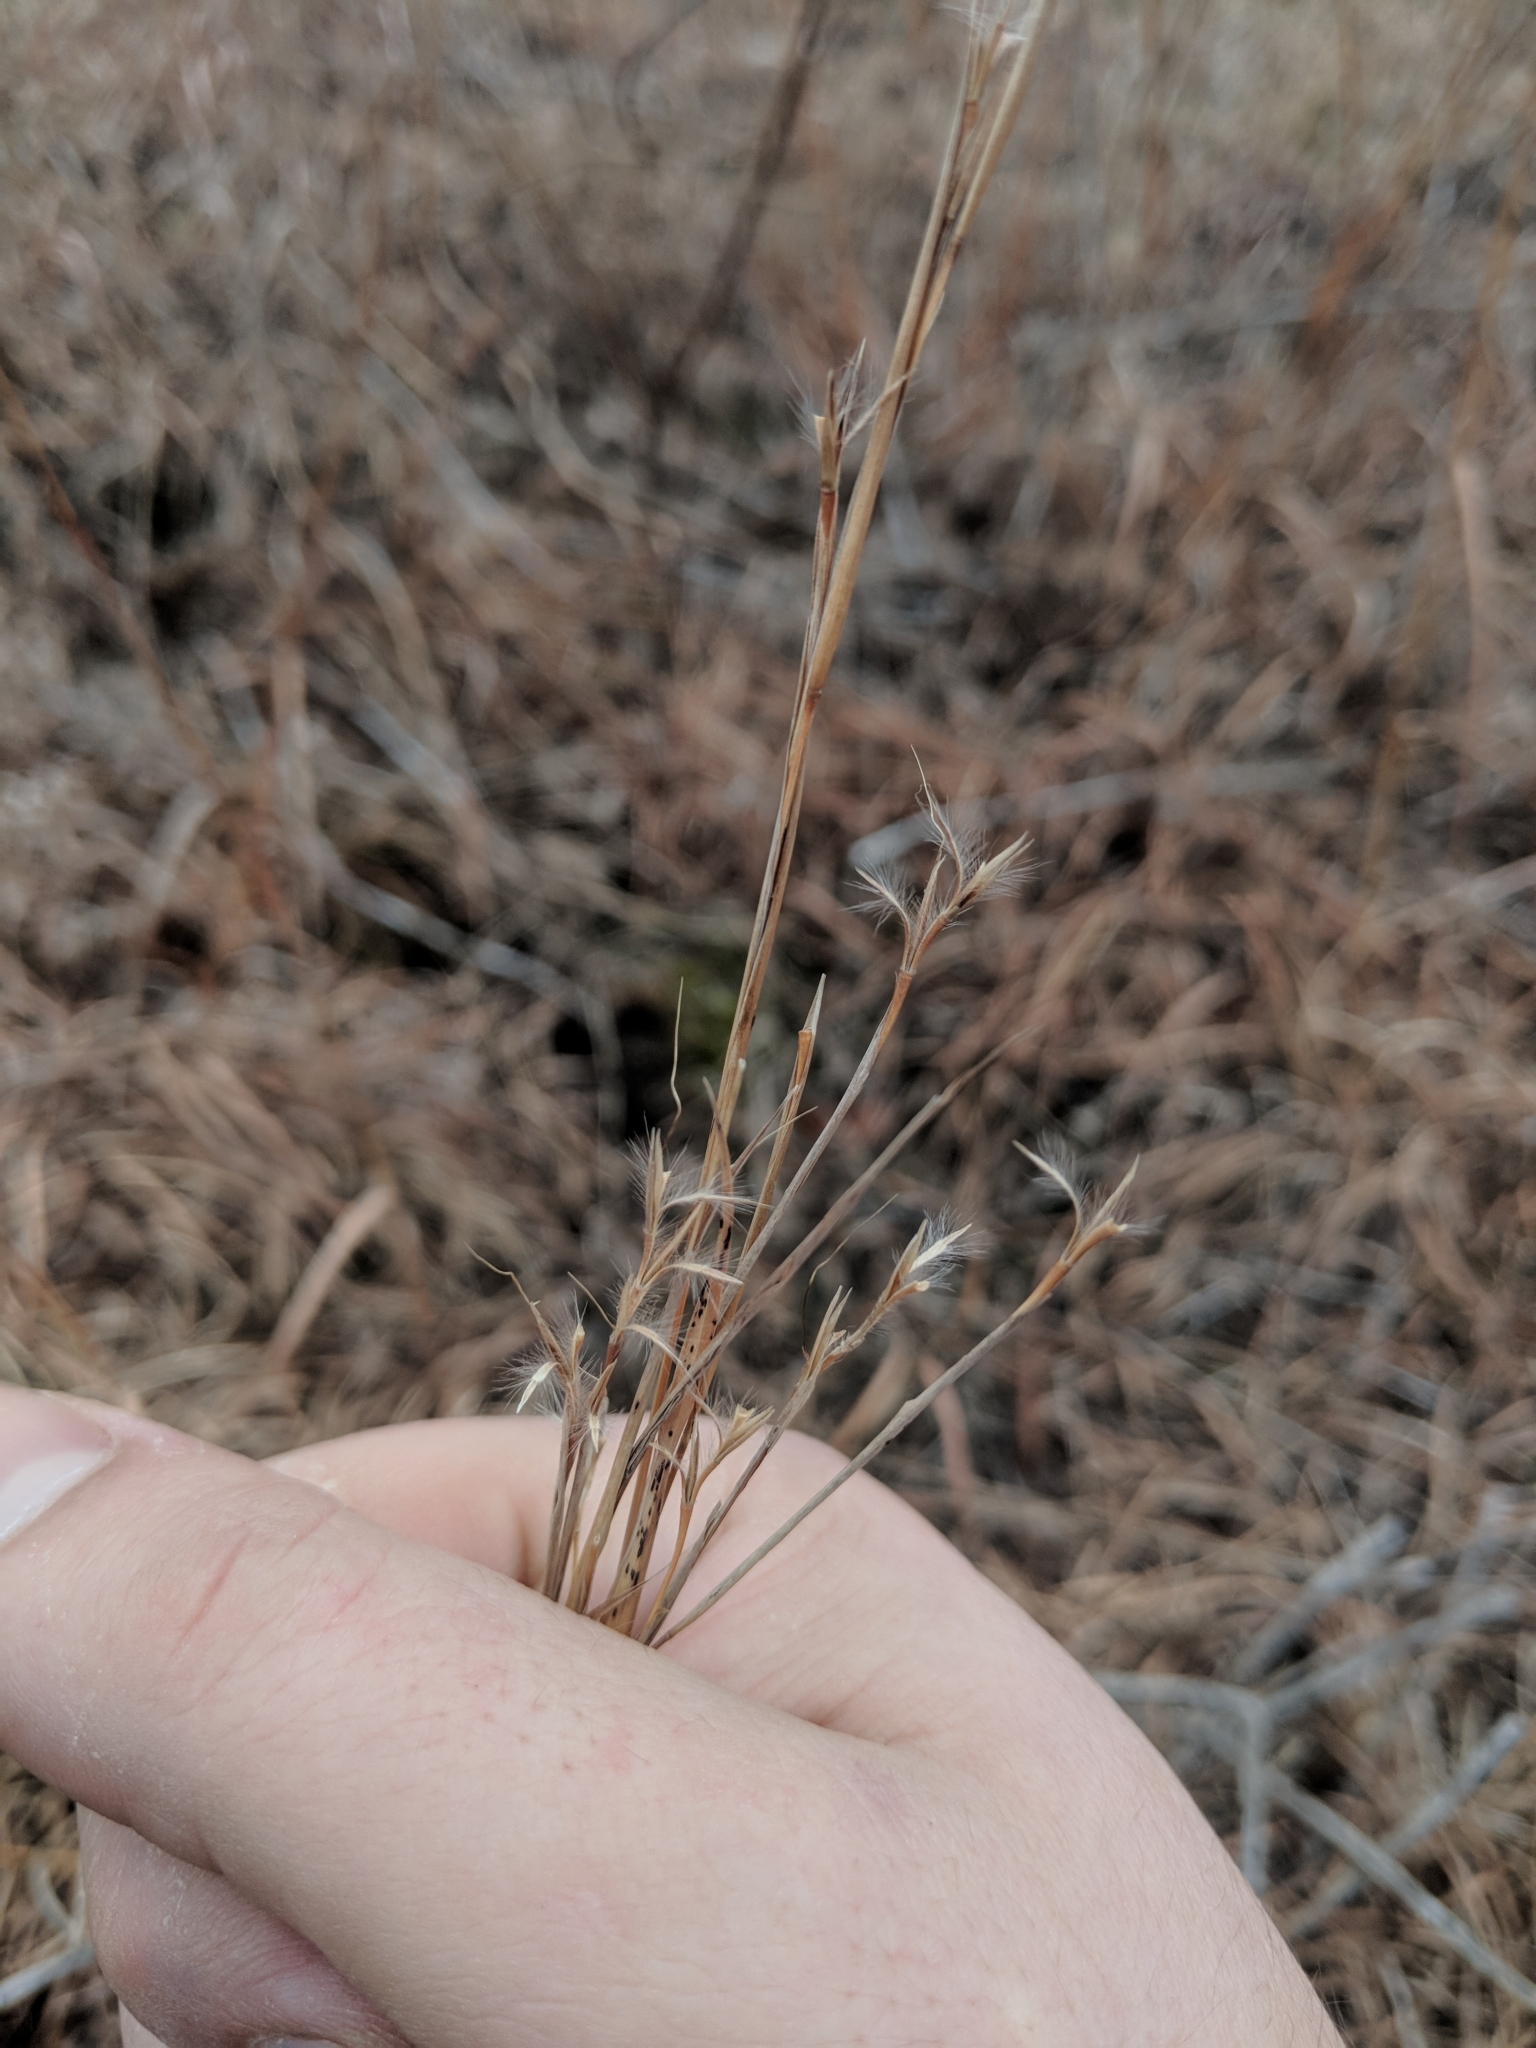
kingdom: Plantae
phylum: Tracheophyta
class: Liliopsida
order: Poales
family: Poaceae
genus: Schizachyrium
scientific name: Schizachyrium scoparium
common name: Little bluestem
